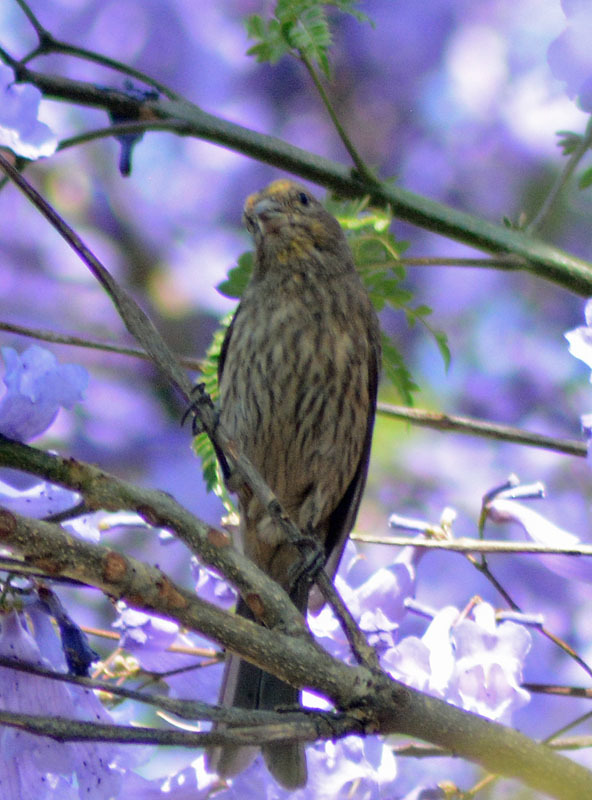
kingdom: Animalia
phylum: Chordata
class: Aves
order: Passeriformes
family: Fringillidae
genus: Haemorhous
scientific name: Haemorhous mexicanus
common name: House finch
